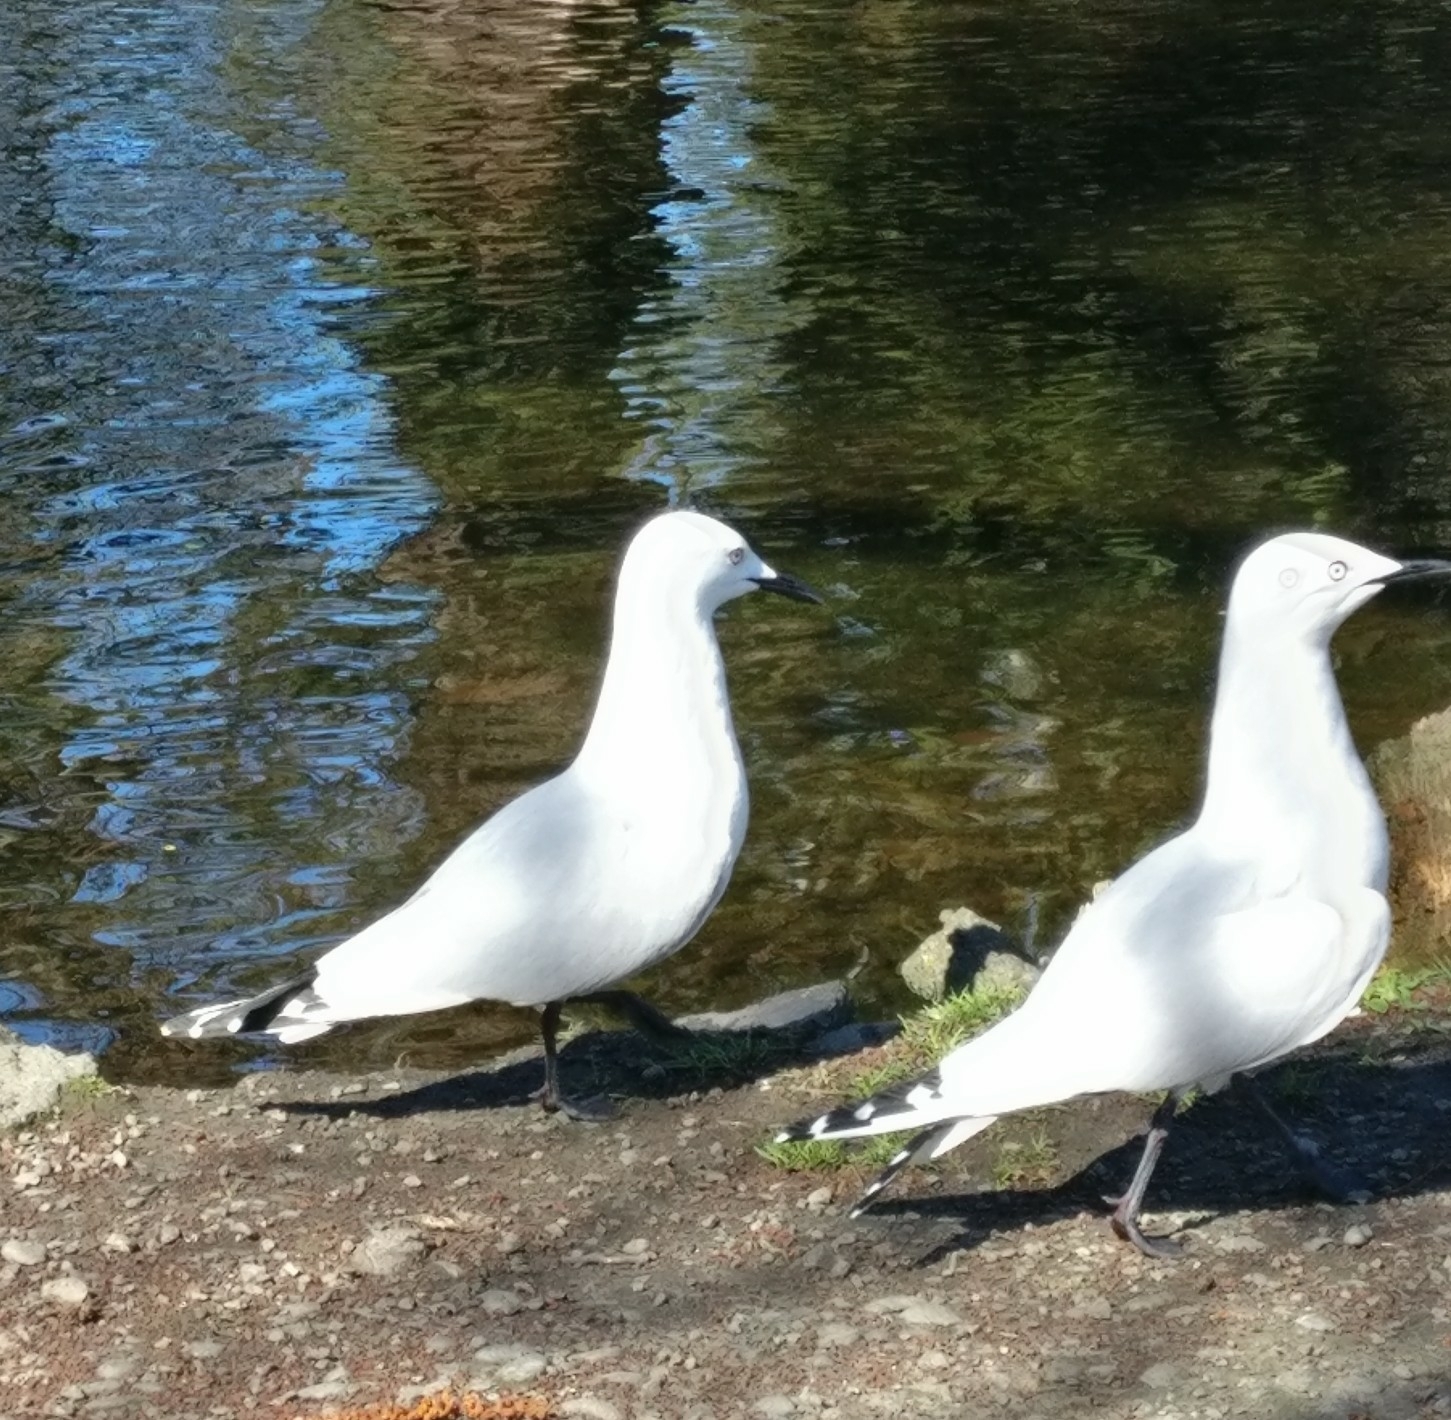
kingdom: Animalia
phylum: Chordata
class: Aves
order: Charadriiformes
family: Laridae
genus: Chroicocephalus
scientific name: Chroicocephalus bulleri
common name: Black-billed gull
